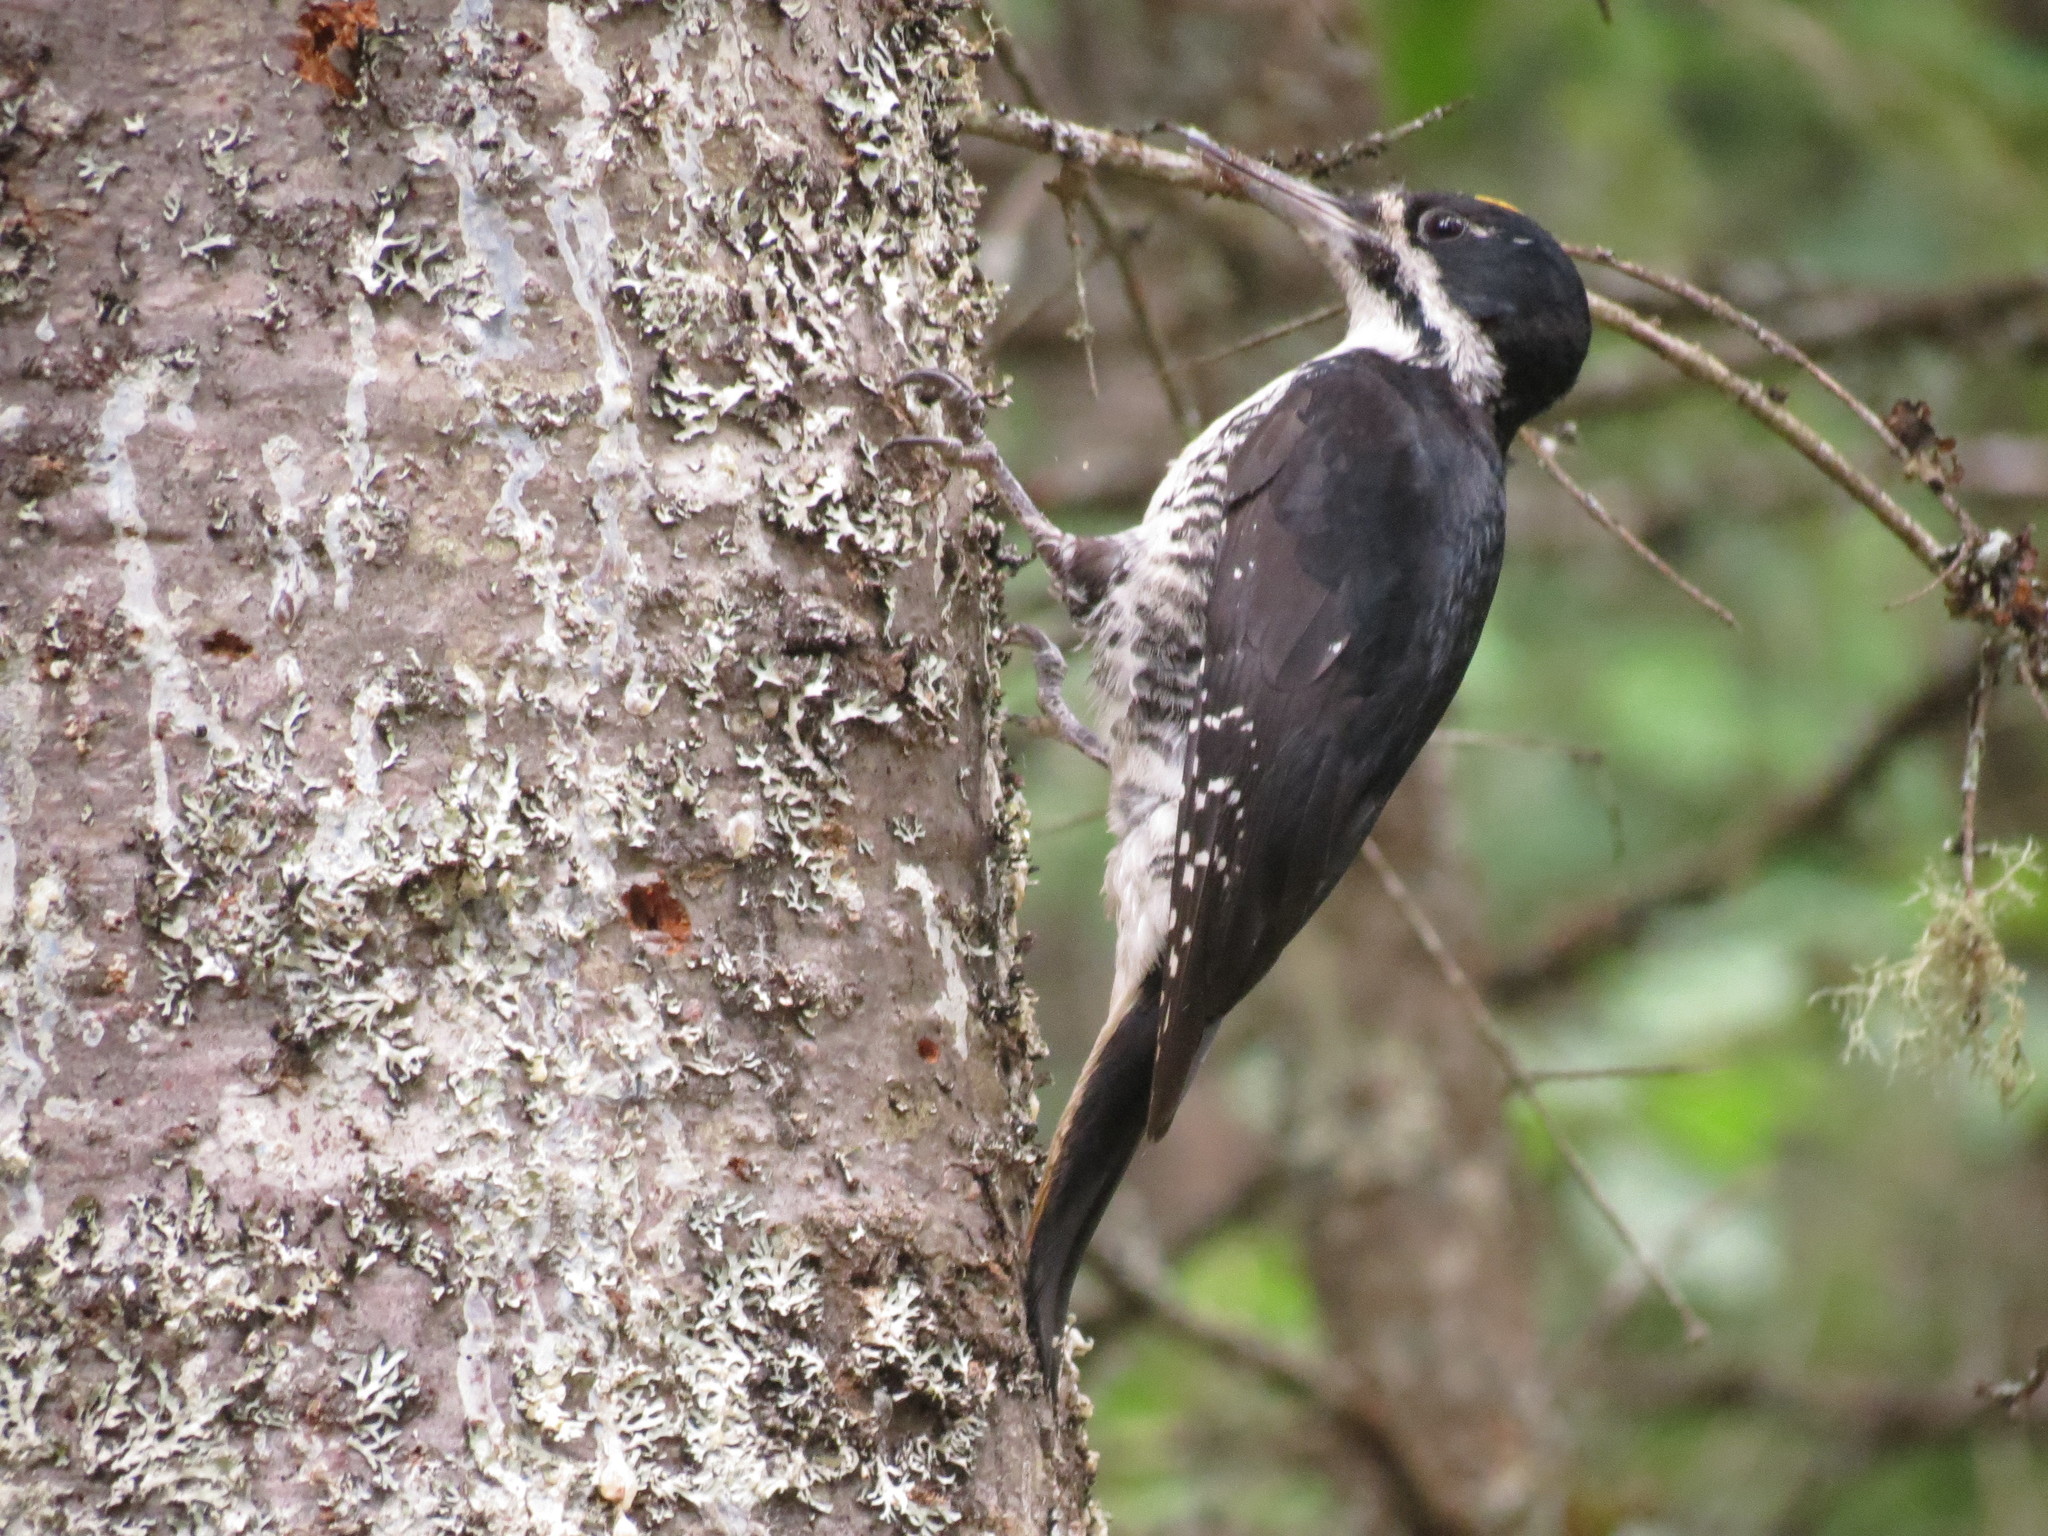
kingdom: Animalia
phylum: Chordata
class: Aves
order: Piciformes
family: Picidae
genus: Picoides
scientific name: Picoides arcticus
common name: Black-backed woodpecker
